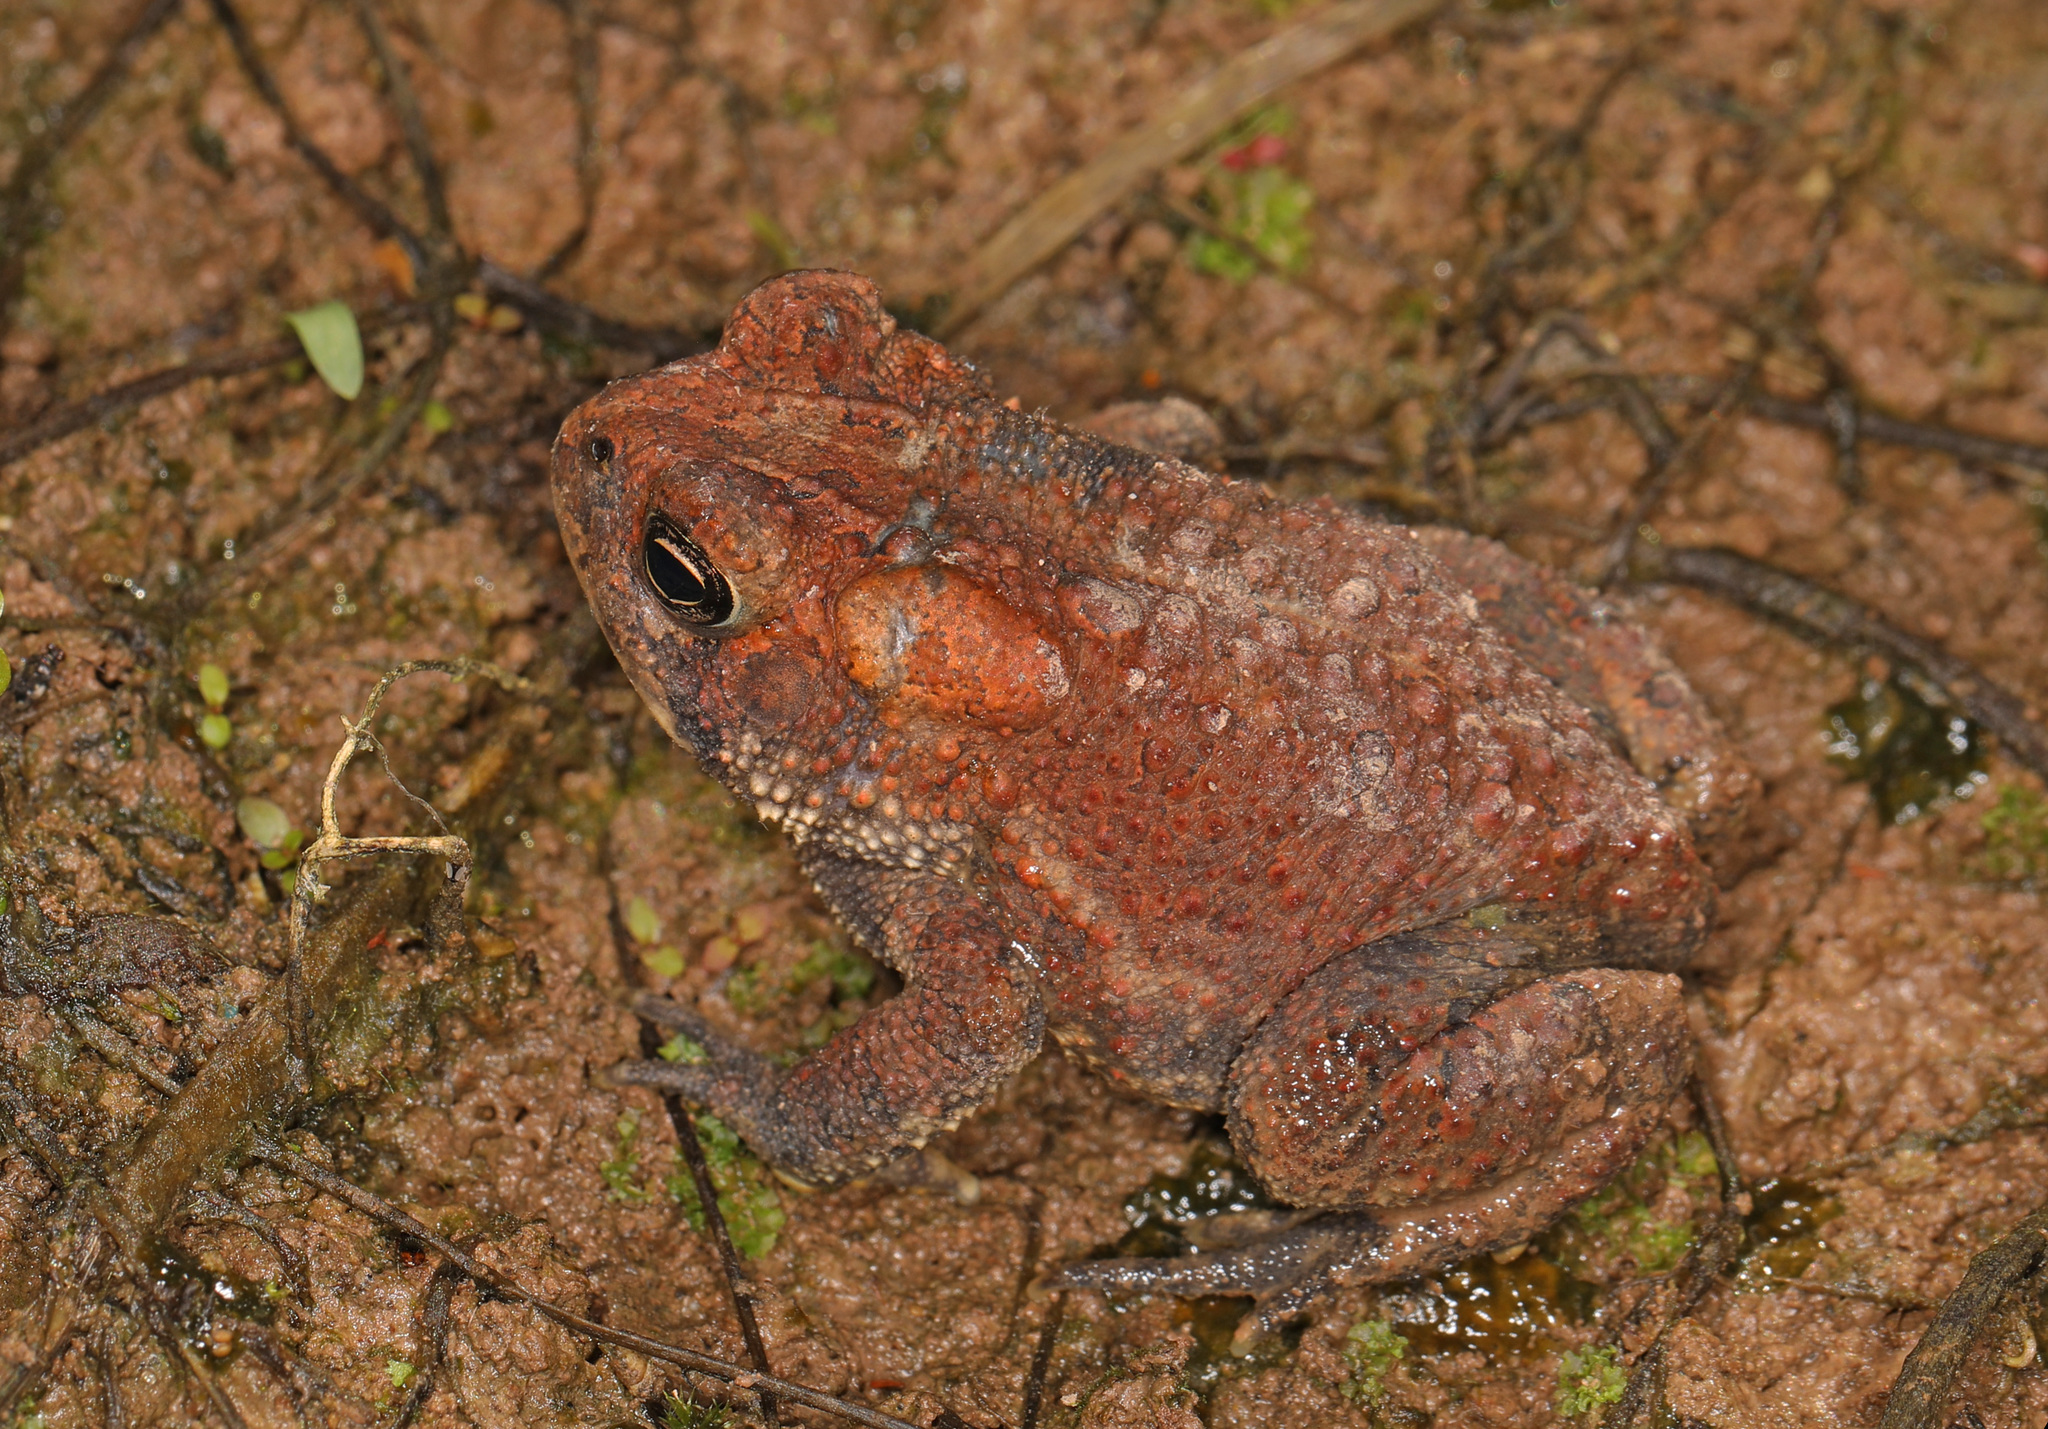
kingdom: Animalia
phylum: Chordata
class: Amphibia
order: Anura
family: Bufonidae
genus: Anaxyrus
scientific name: Anaxyrus americanus
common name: American toad
